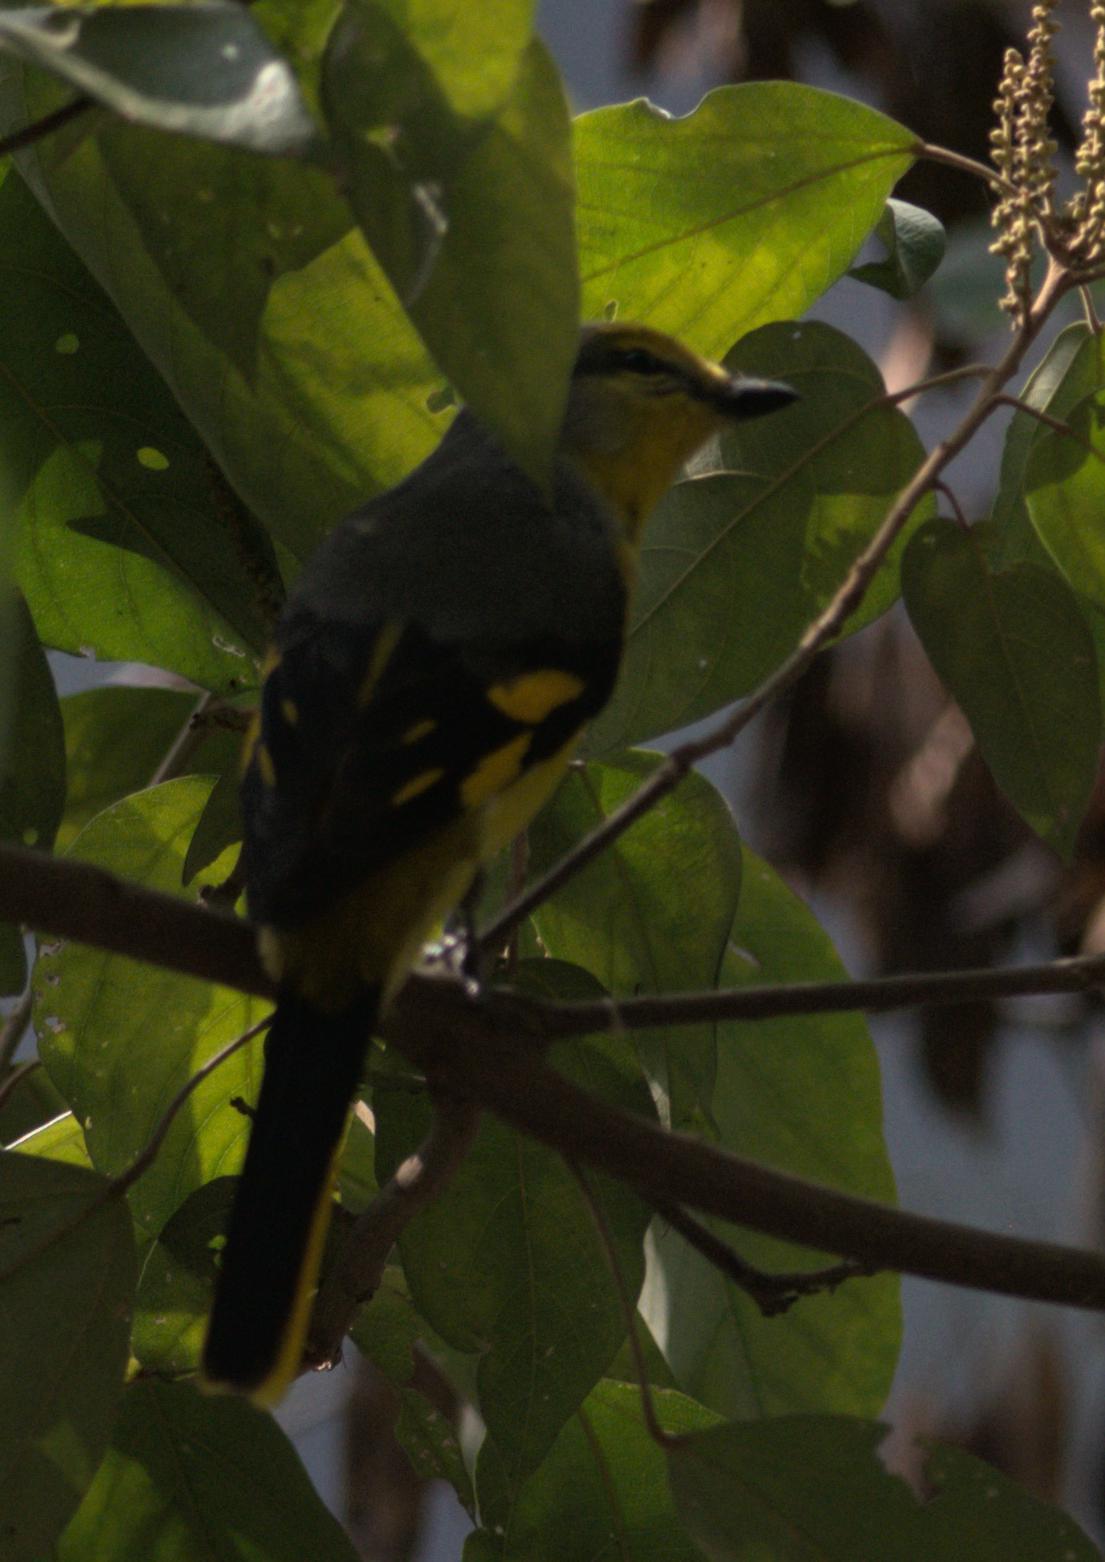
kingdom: Animalia
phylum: Chordata
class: Aves
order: Passeriformes
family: Campephagidae
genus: Pericrocotus
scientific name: Pericrocotus speciosus
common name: Scarlet minivet
